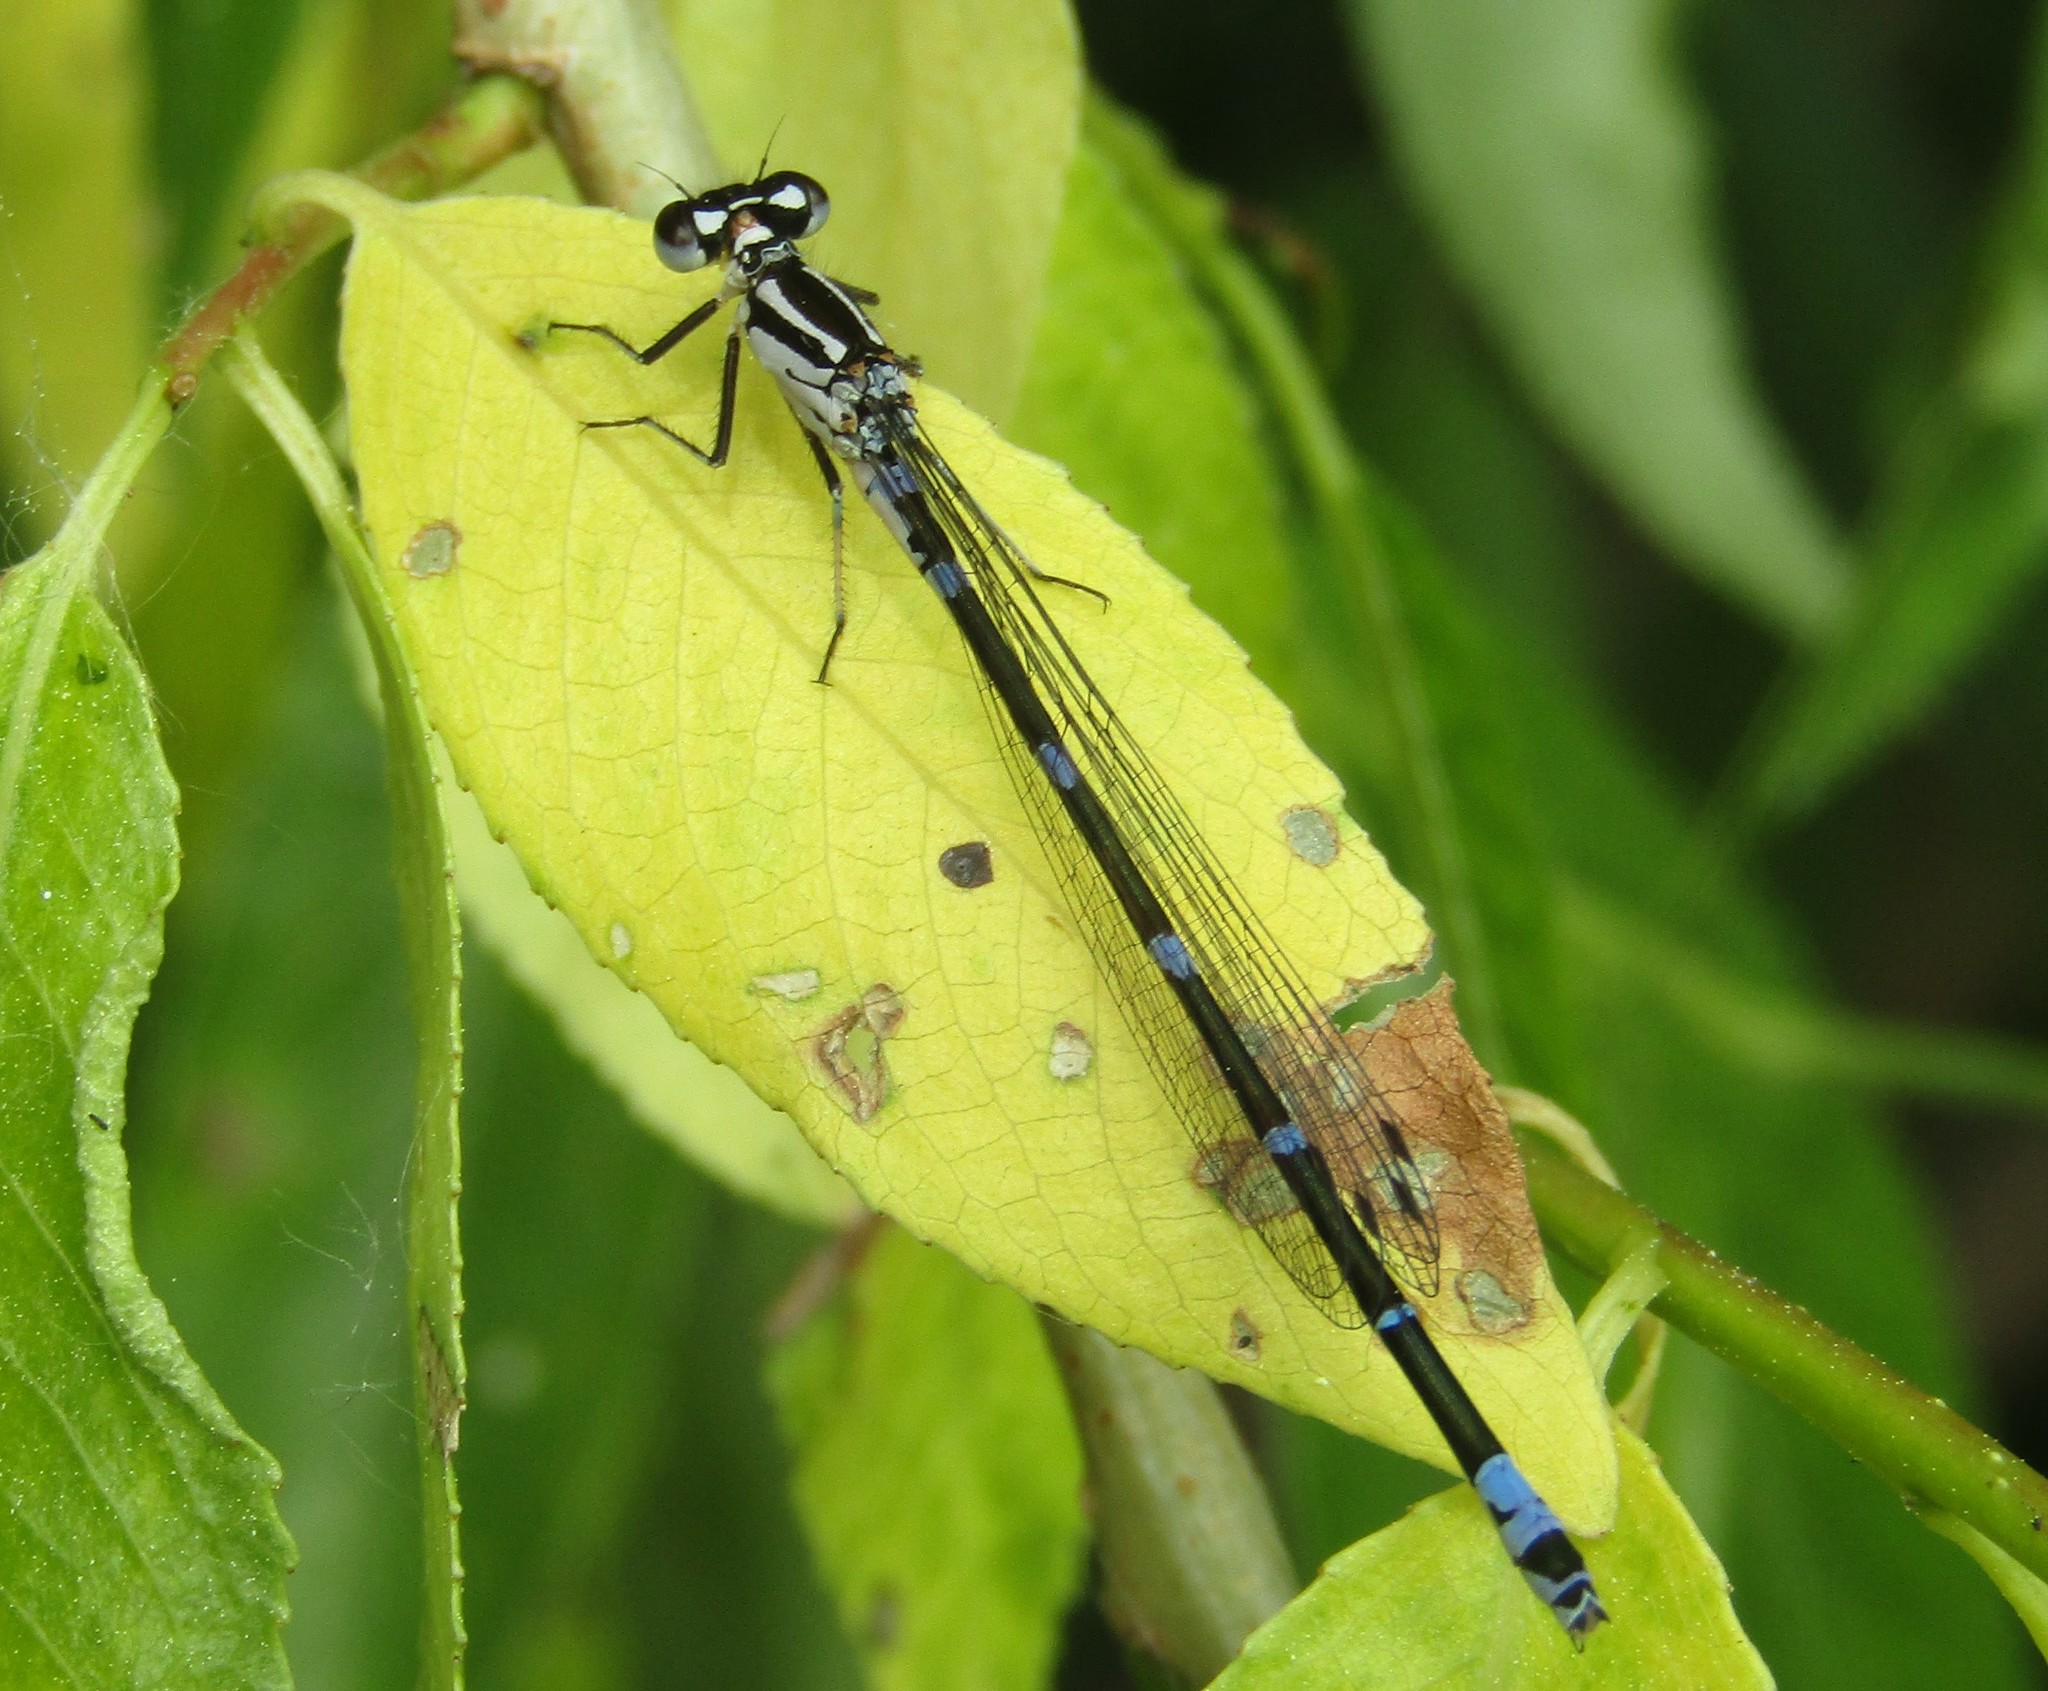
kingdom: Animalia
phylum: Arthropoda
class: Insecta
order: Odonata
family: Coenagrionidae
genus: Coenagrion
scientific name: Coenagrion pulchellum
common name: Variable bluet
